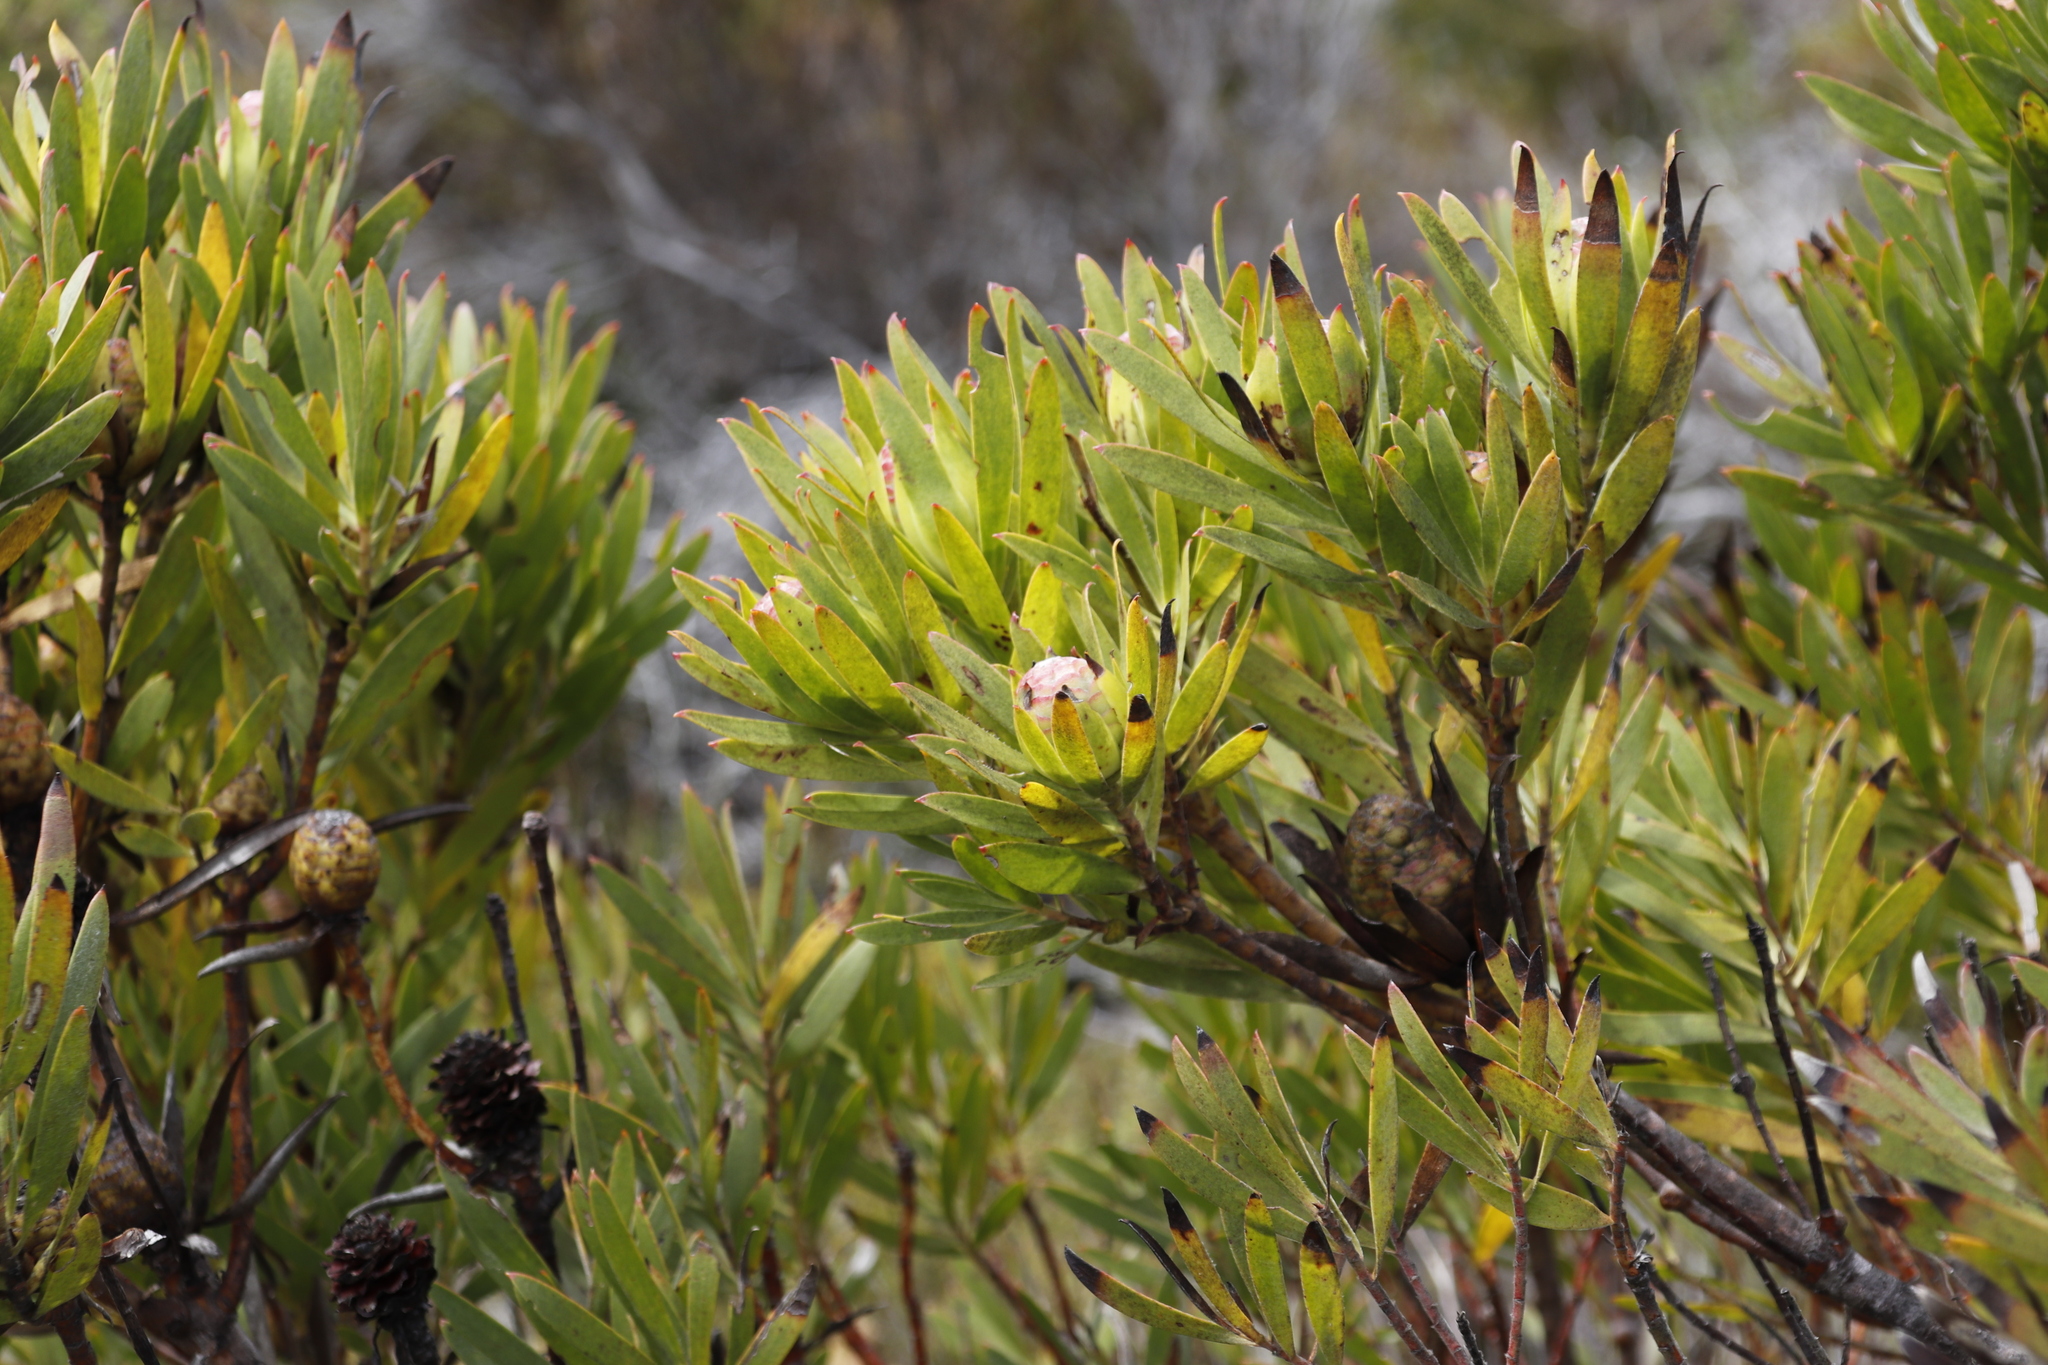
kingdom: Plantae
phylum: Tracheophyta
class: Magnoliopsida
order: Proteales
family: Proteaceae
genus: Leucadendron
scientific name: Leucadendron xanthoconus
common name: Sickle-leaf conebush
